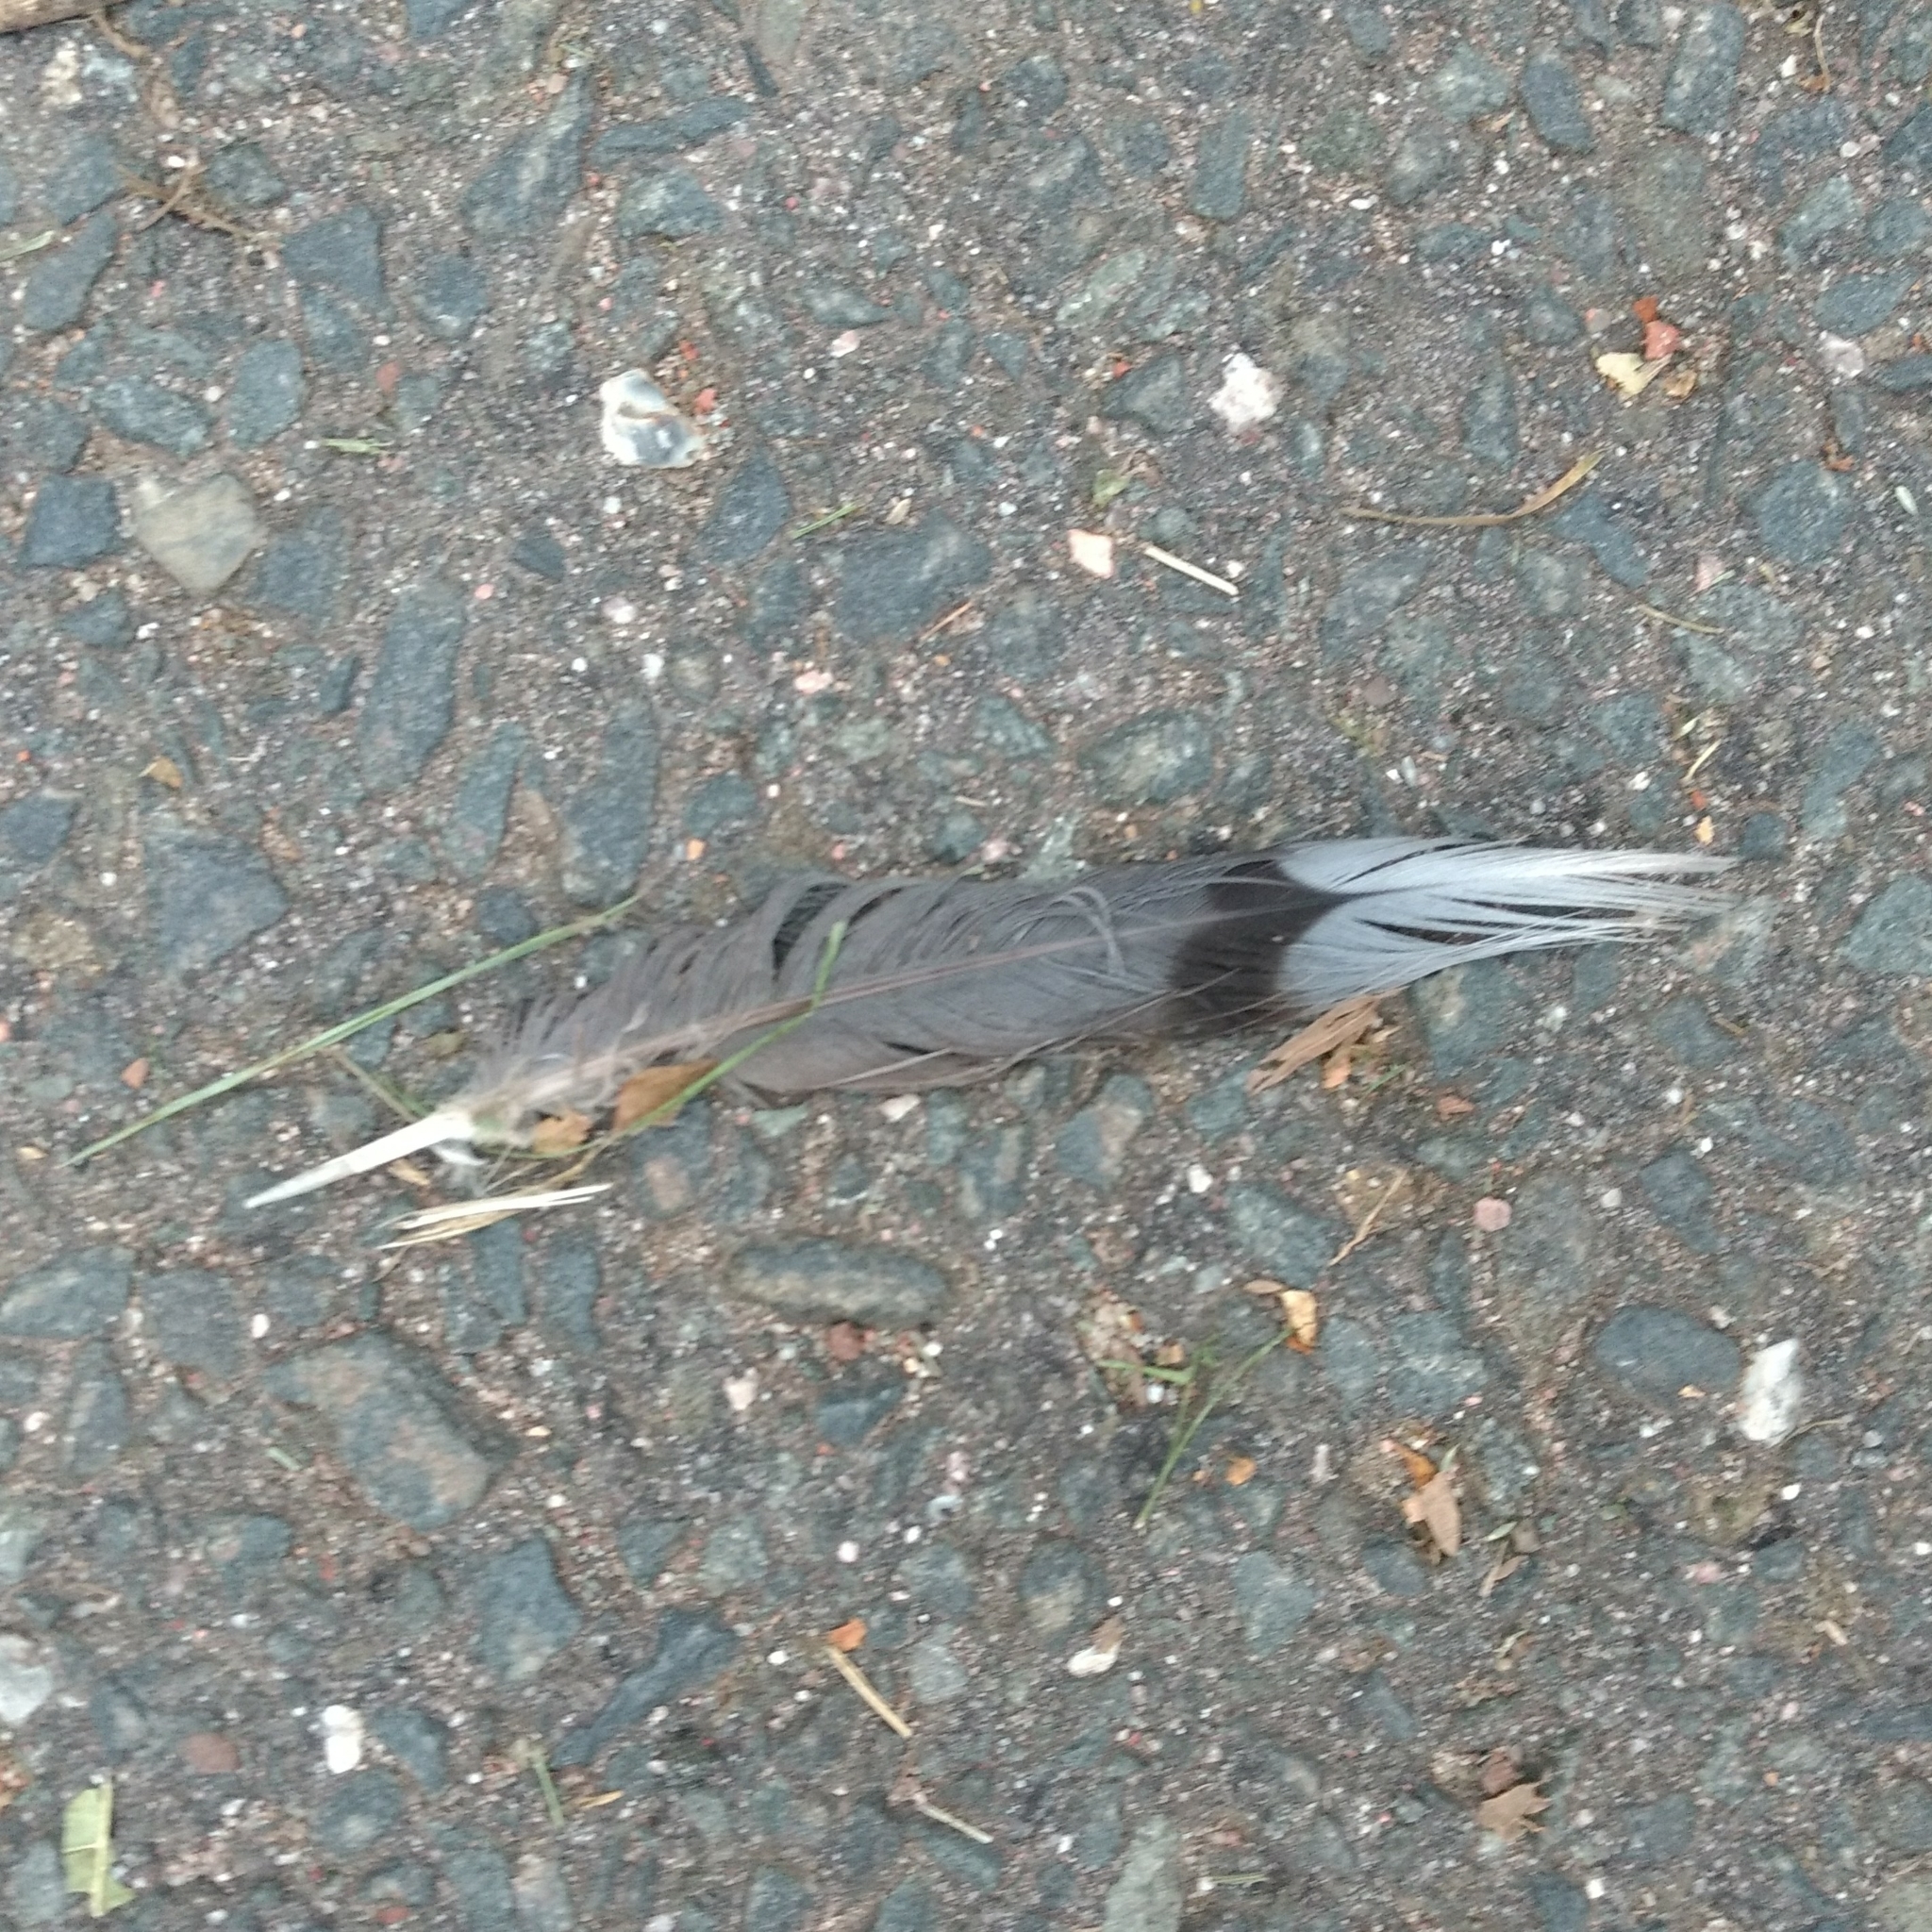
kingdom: Animalia
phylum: Chordata
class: Aves
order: Columbiformes
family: Columbidae
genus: Zenaida
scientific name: Zenaida macroura
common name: Mourning dove
